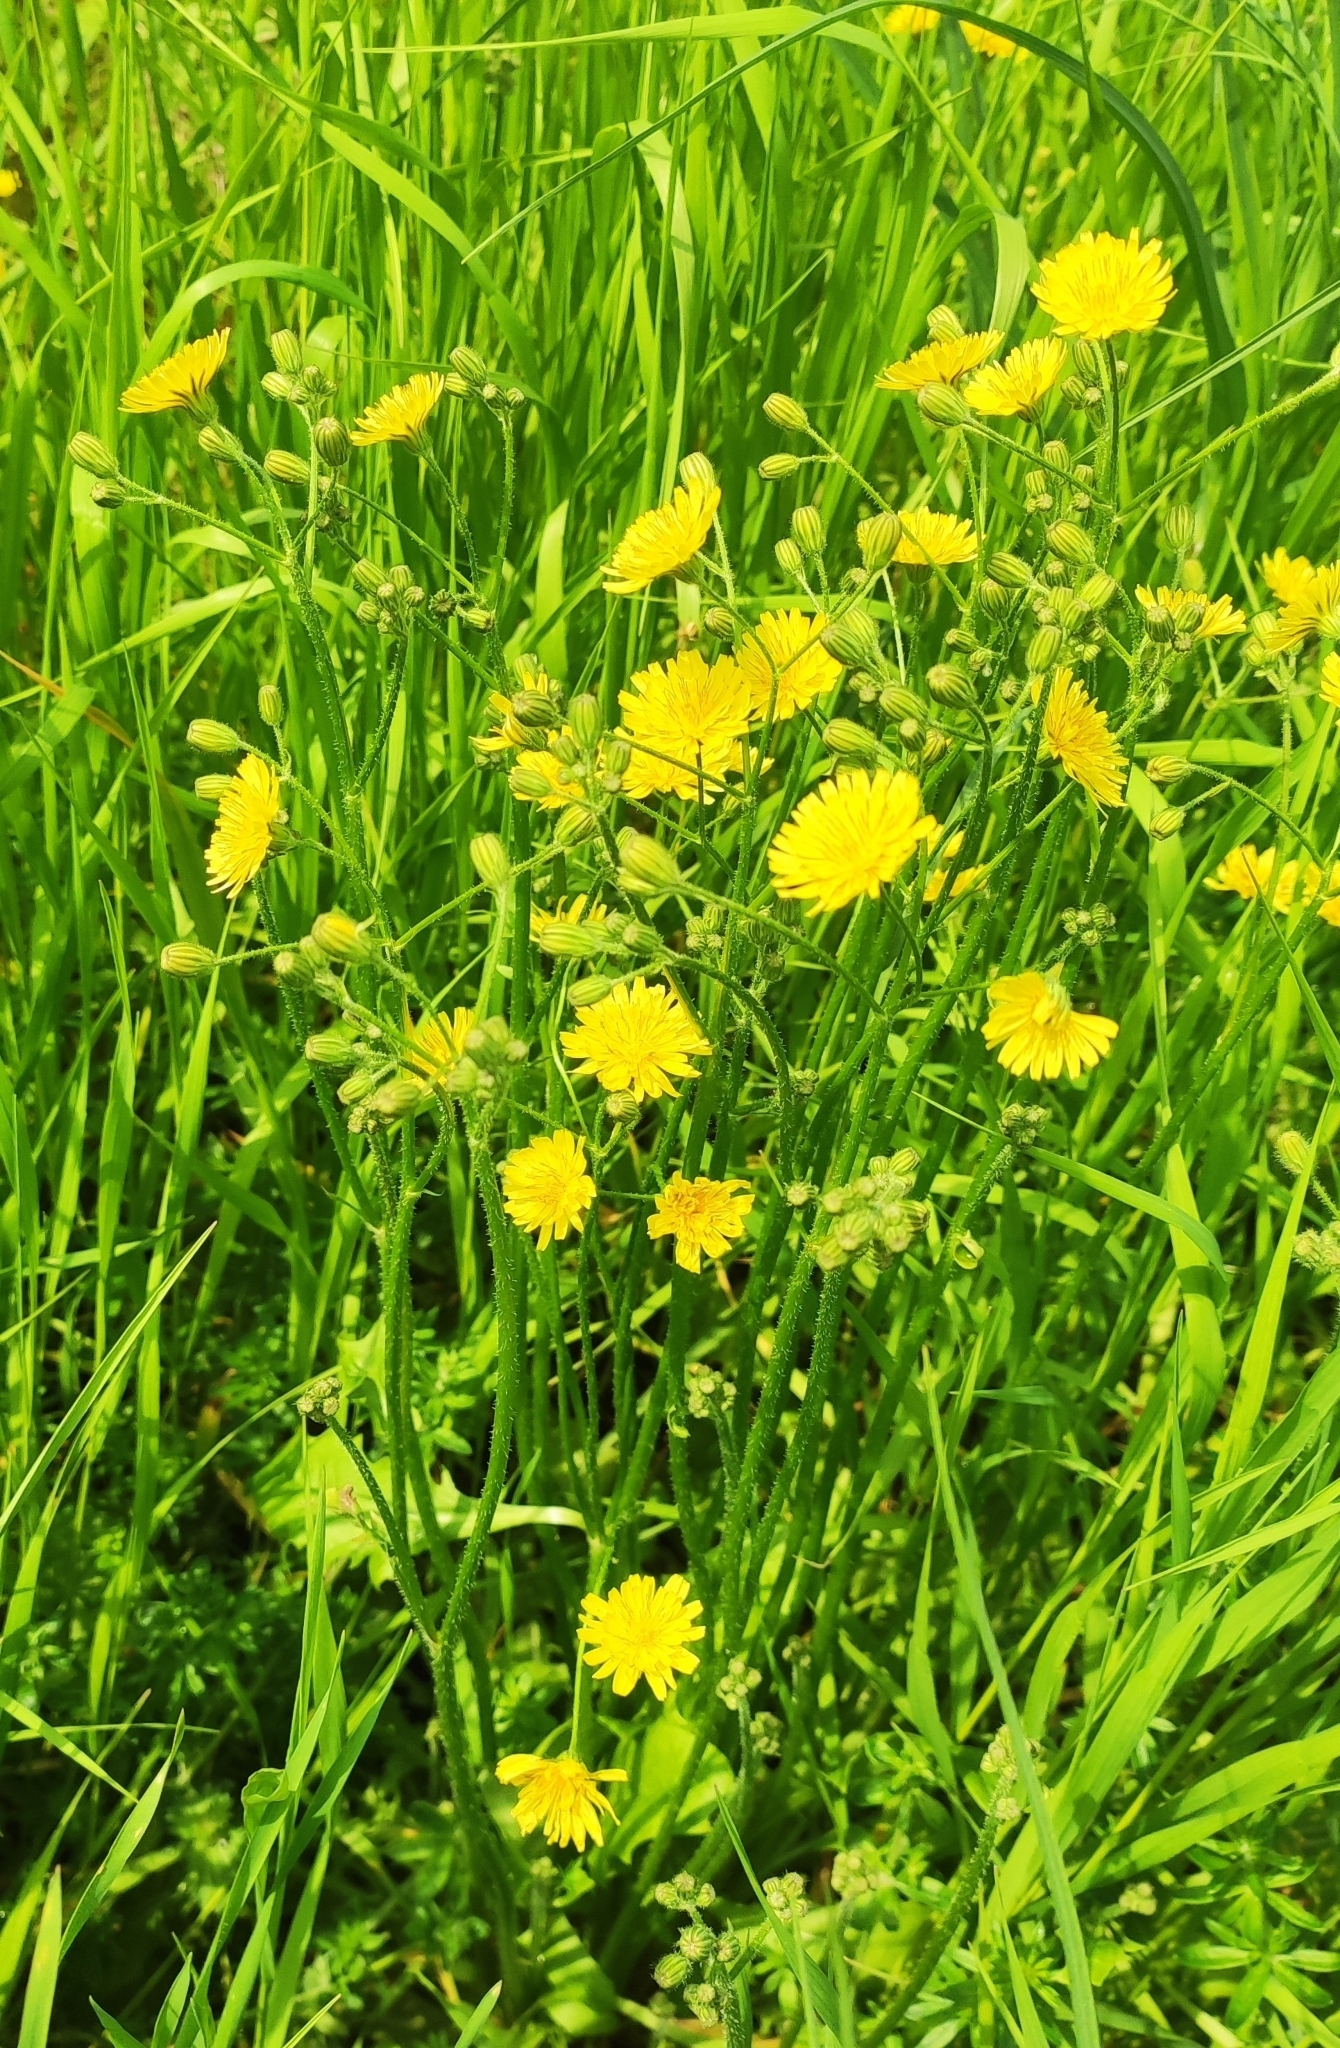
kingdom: Plantae
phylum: Tracheophyta
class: Magnoliopsida
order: Asterales
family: Asteraceae
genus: Crepis
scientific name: Crepis sancta
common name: Hawk's-beard
